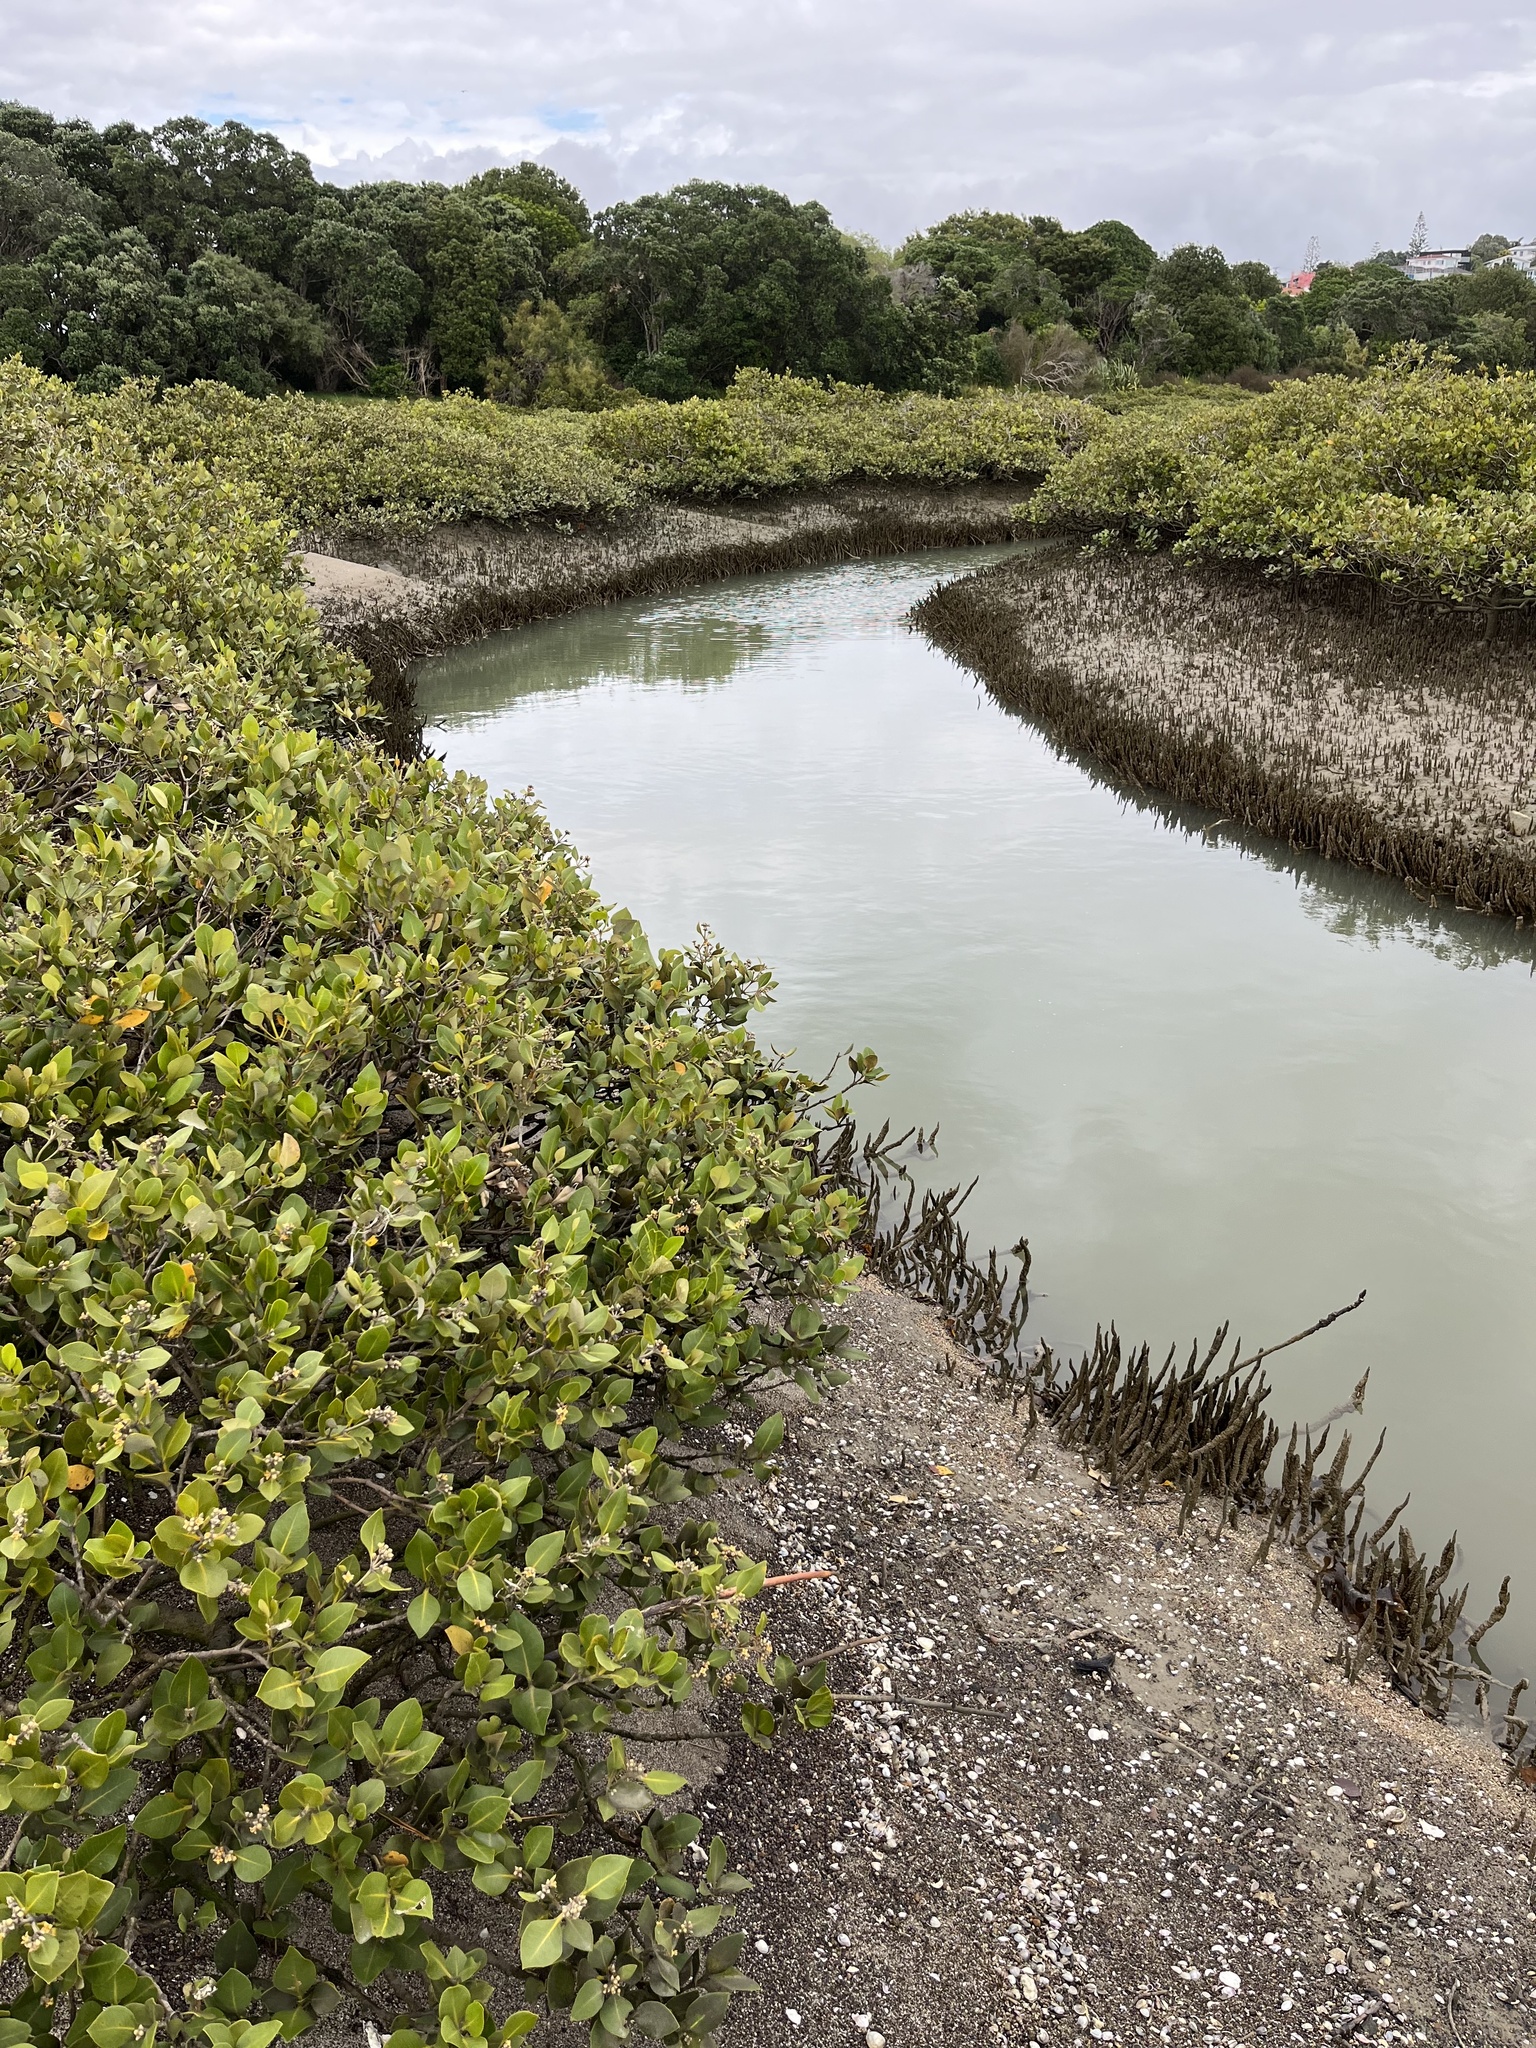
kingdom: Plantae
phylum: Tracheophyta
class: Magnoliopsida
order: Lamiales
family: Acanthaceae
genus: Avicennia
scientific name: Avicennia marina
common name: Gray mangrove
